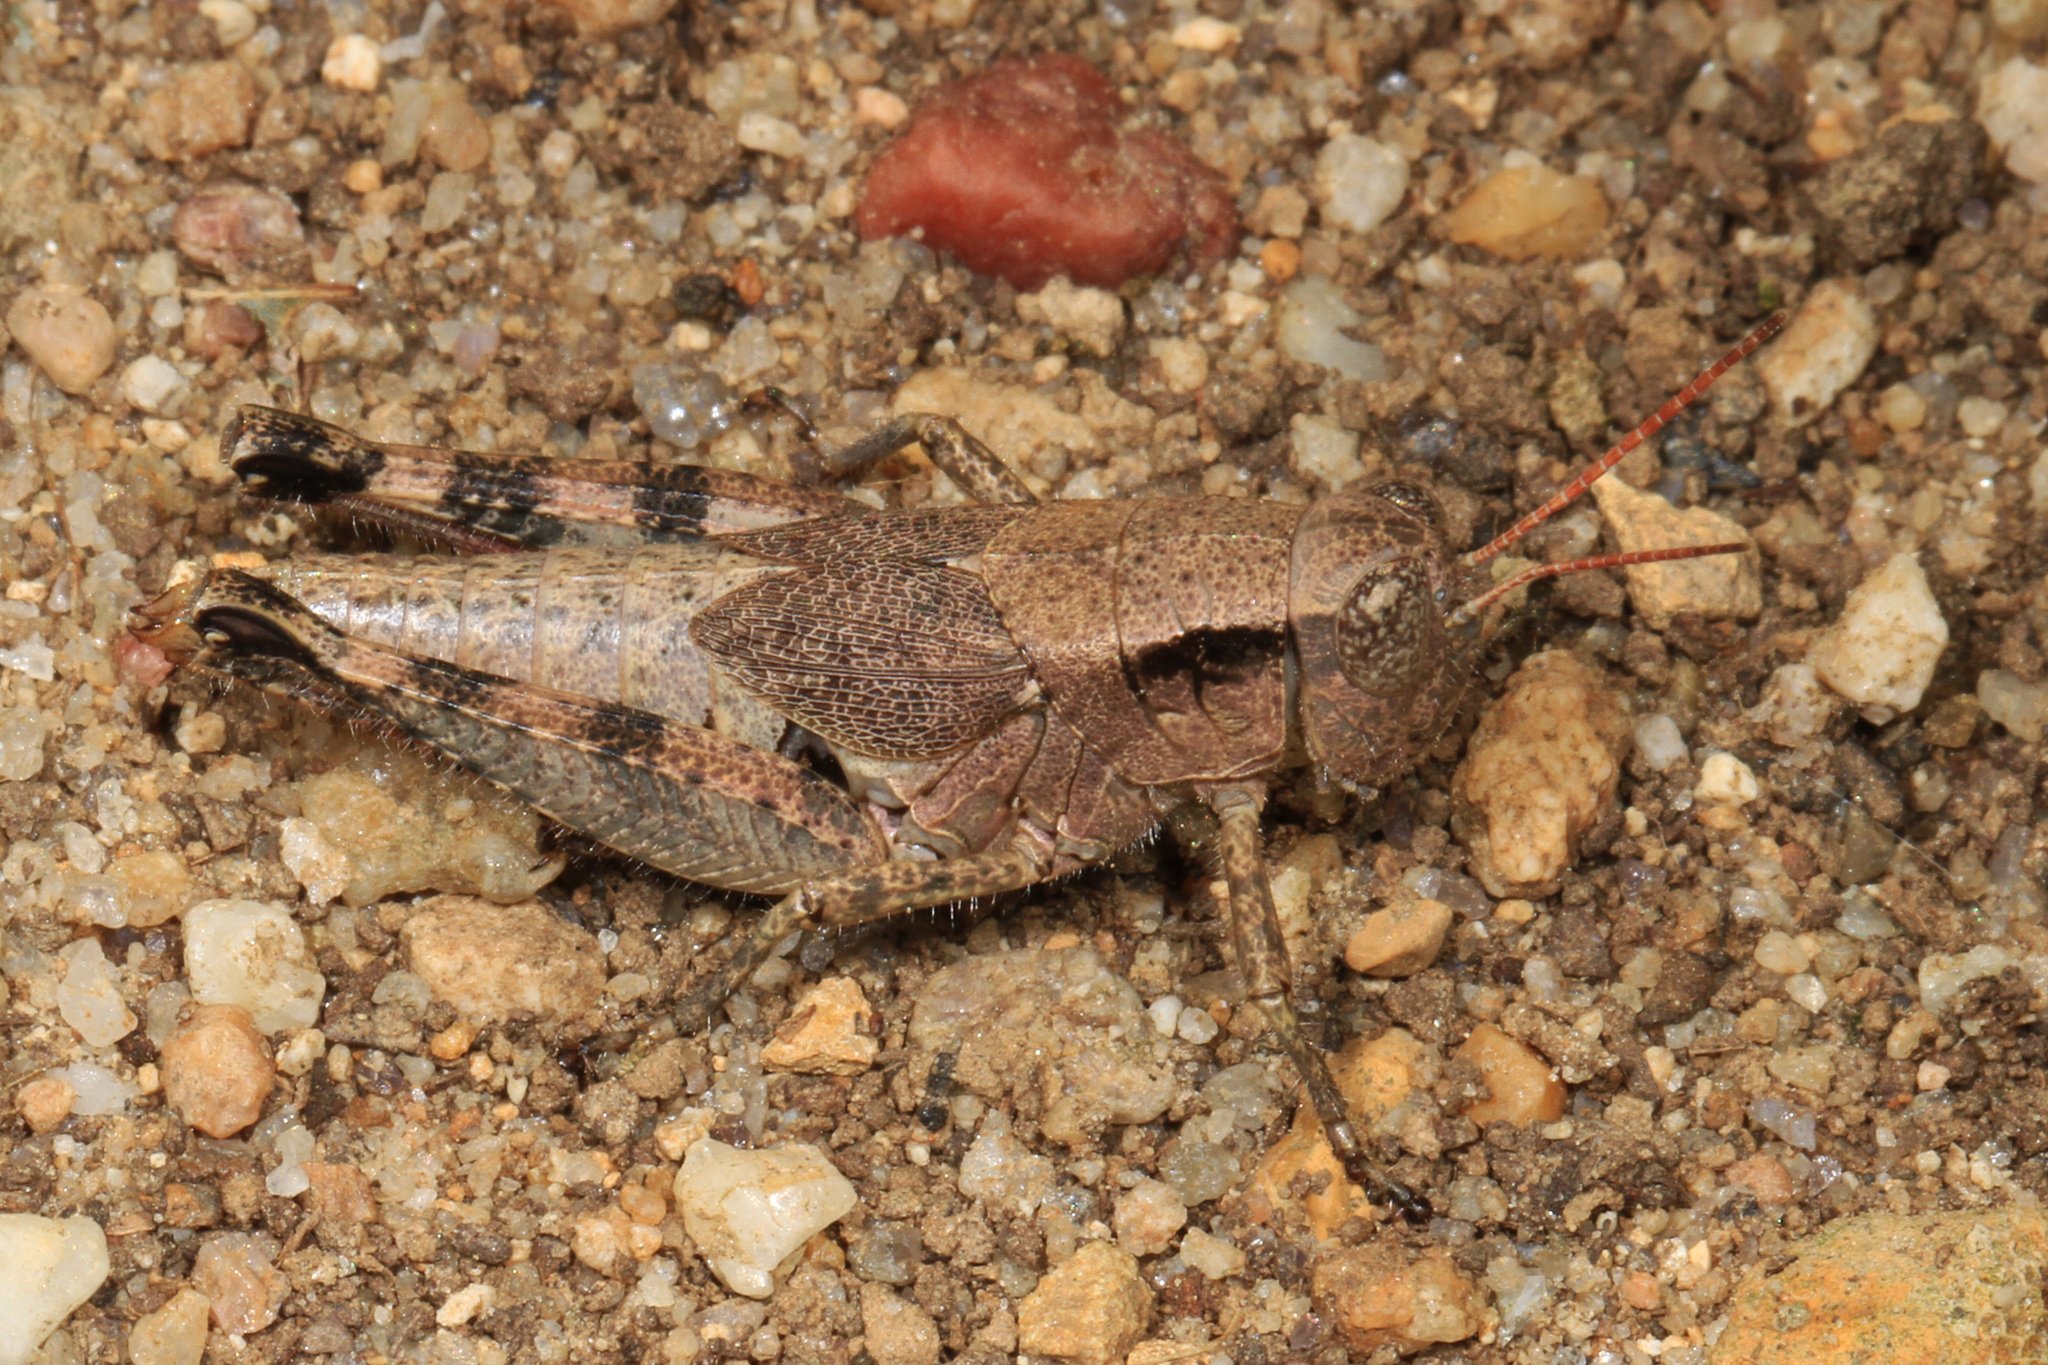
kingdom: Animalia
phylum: Arthropoda
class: Insecta
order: Orthoptera
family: Acrididae
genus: Melanoplus
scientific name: Melanoplus scudderi
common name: Scudder's short-winged locust
